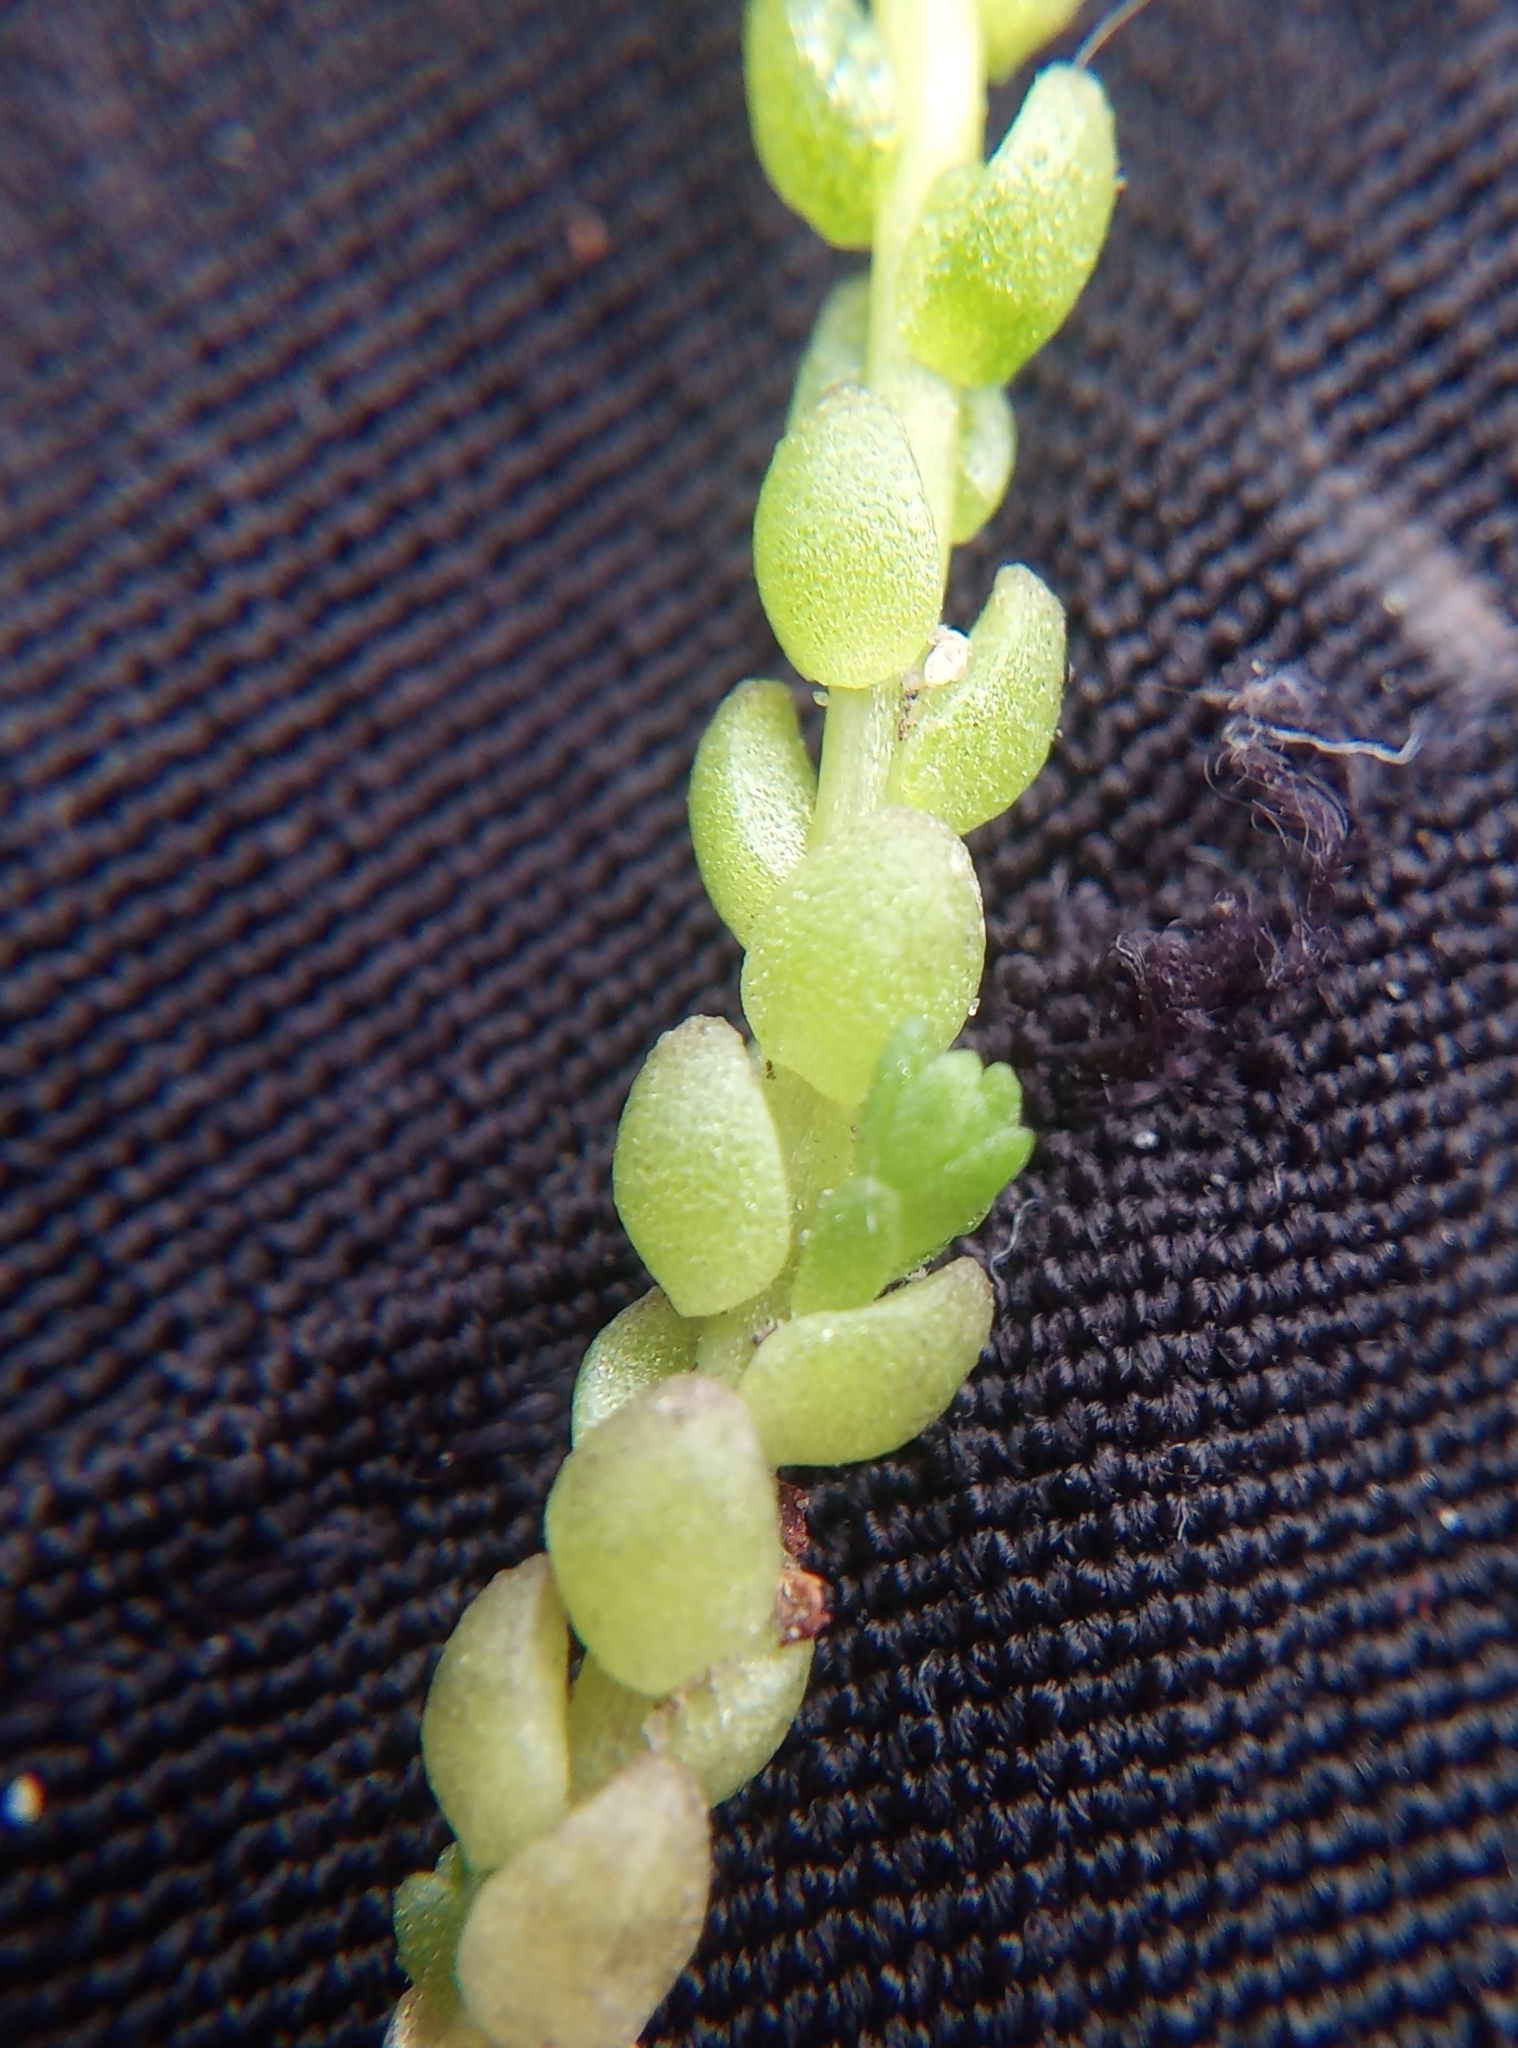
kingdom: Plantae
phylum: Tracheophyta
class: Magnoliopsida
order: Saxifragales
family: Crassulaceae
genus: Sedum
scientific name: Sedum acre
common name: Biting stonecrop
